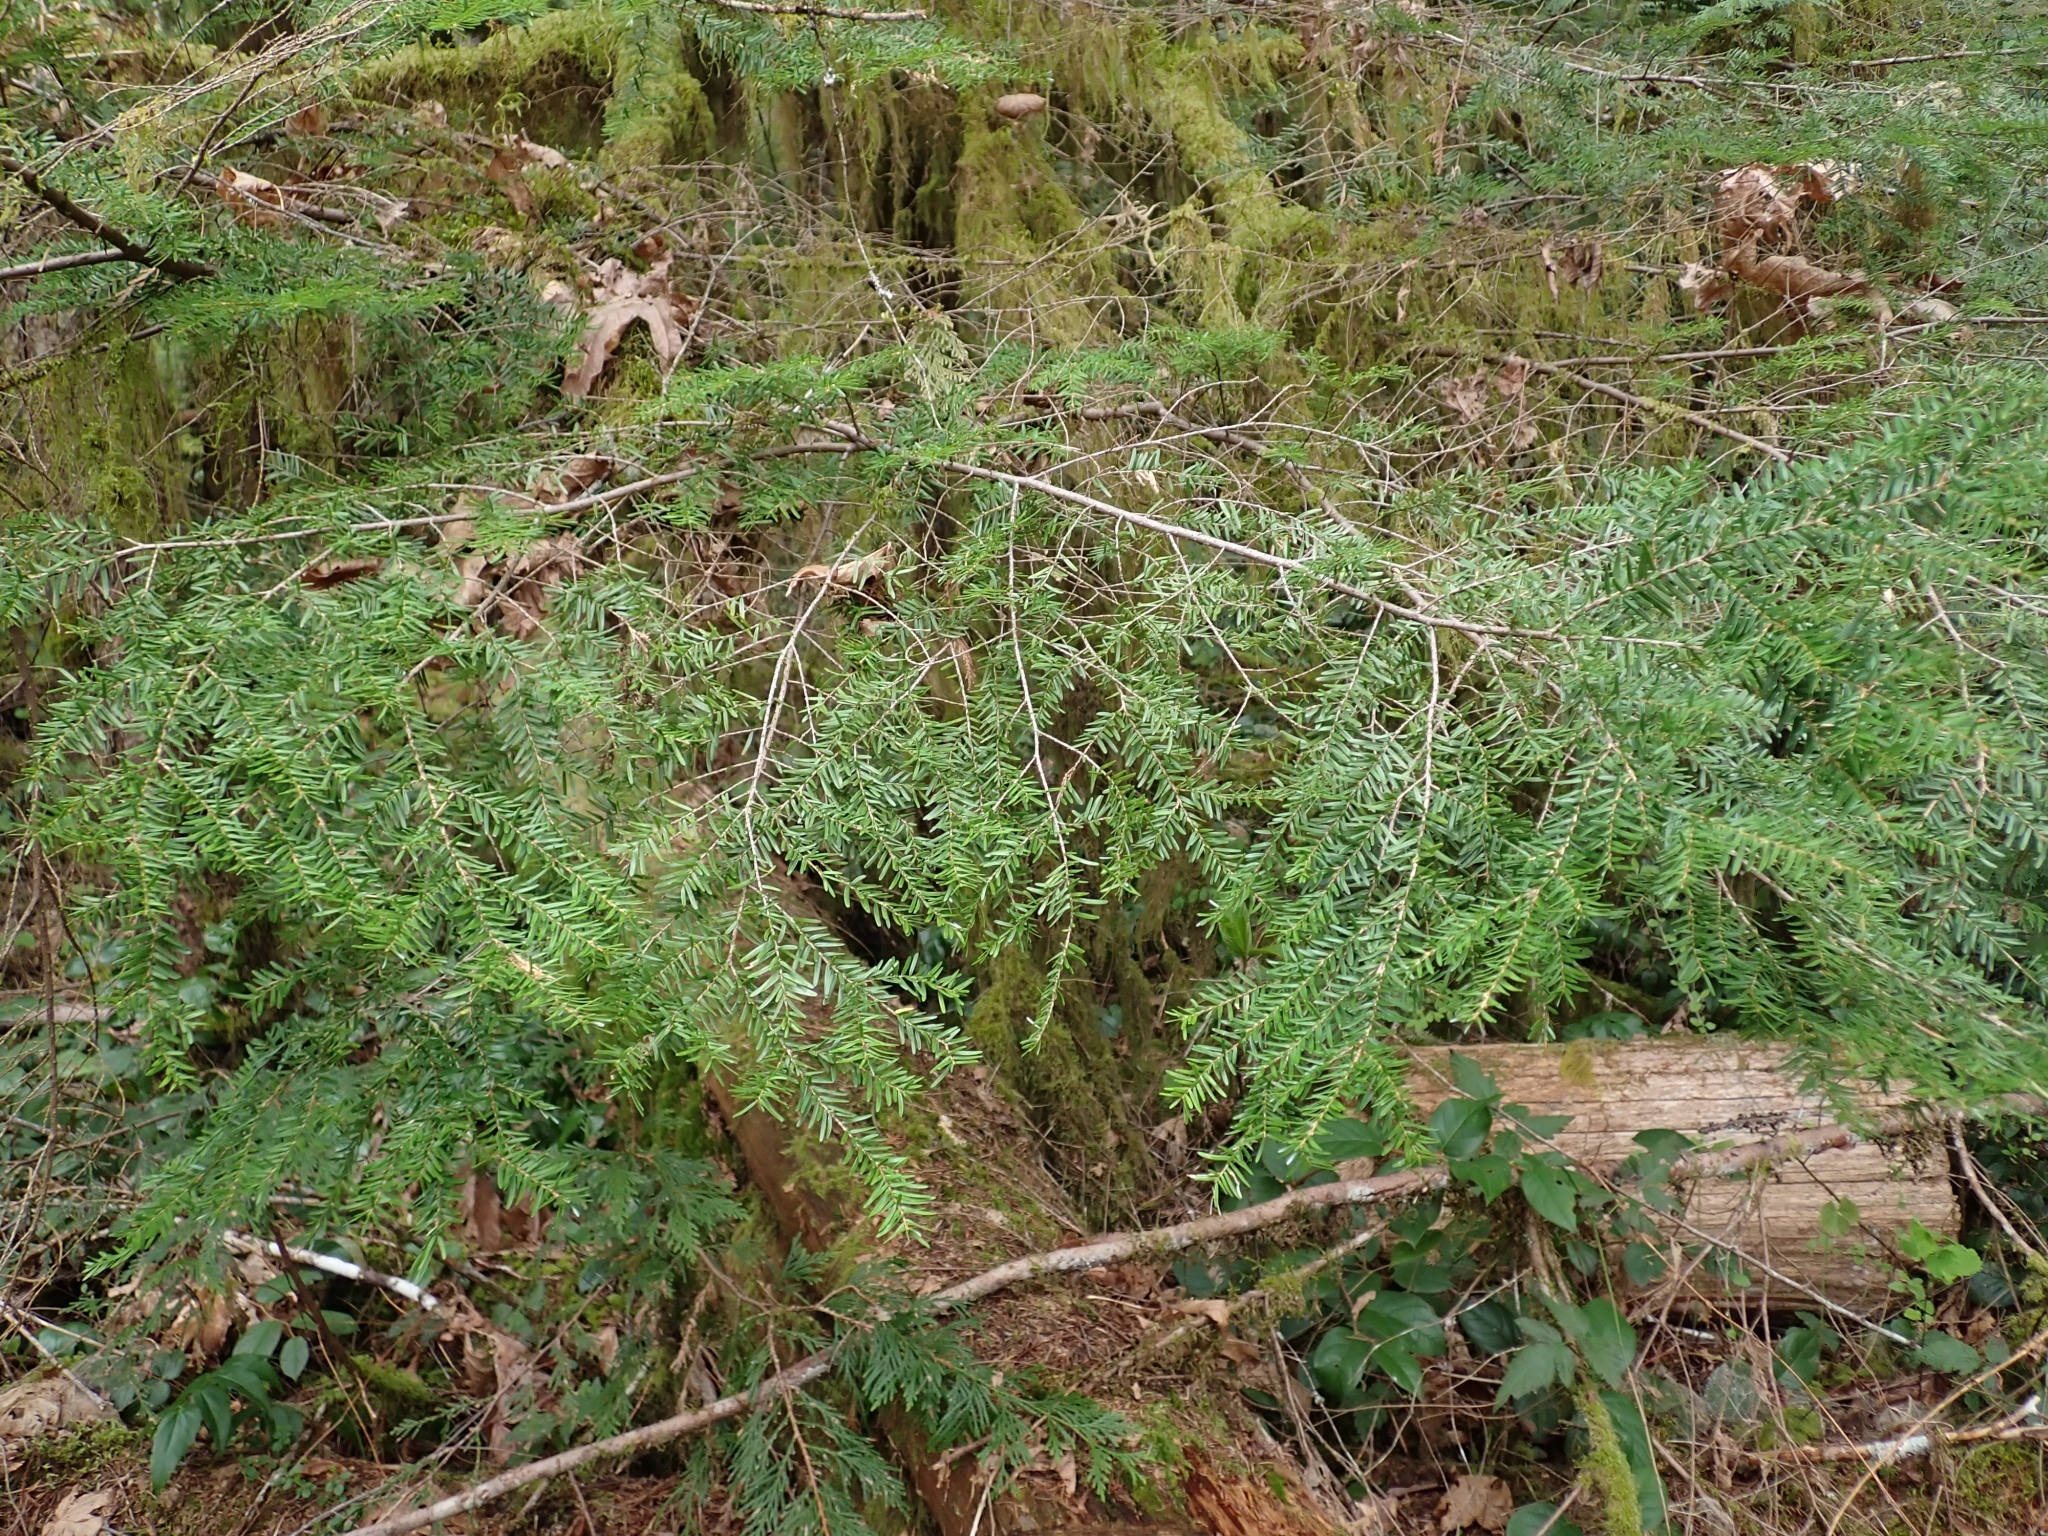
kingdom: Plantae
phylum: Tracheophyta
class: Pinopsida
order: Pinales
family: Pinaceae
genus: Tsuga
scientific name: Tsuga heterophylla
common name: Western hemlock
